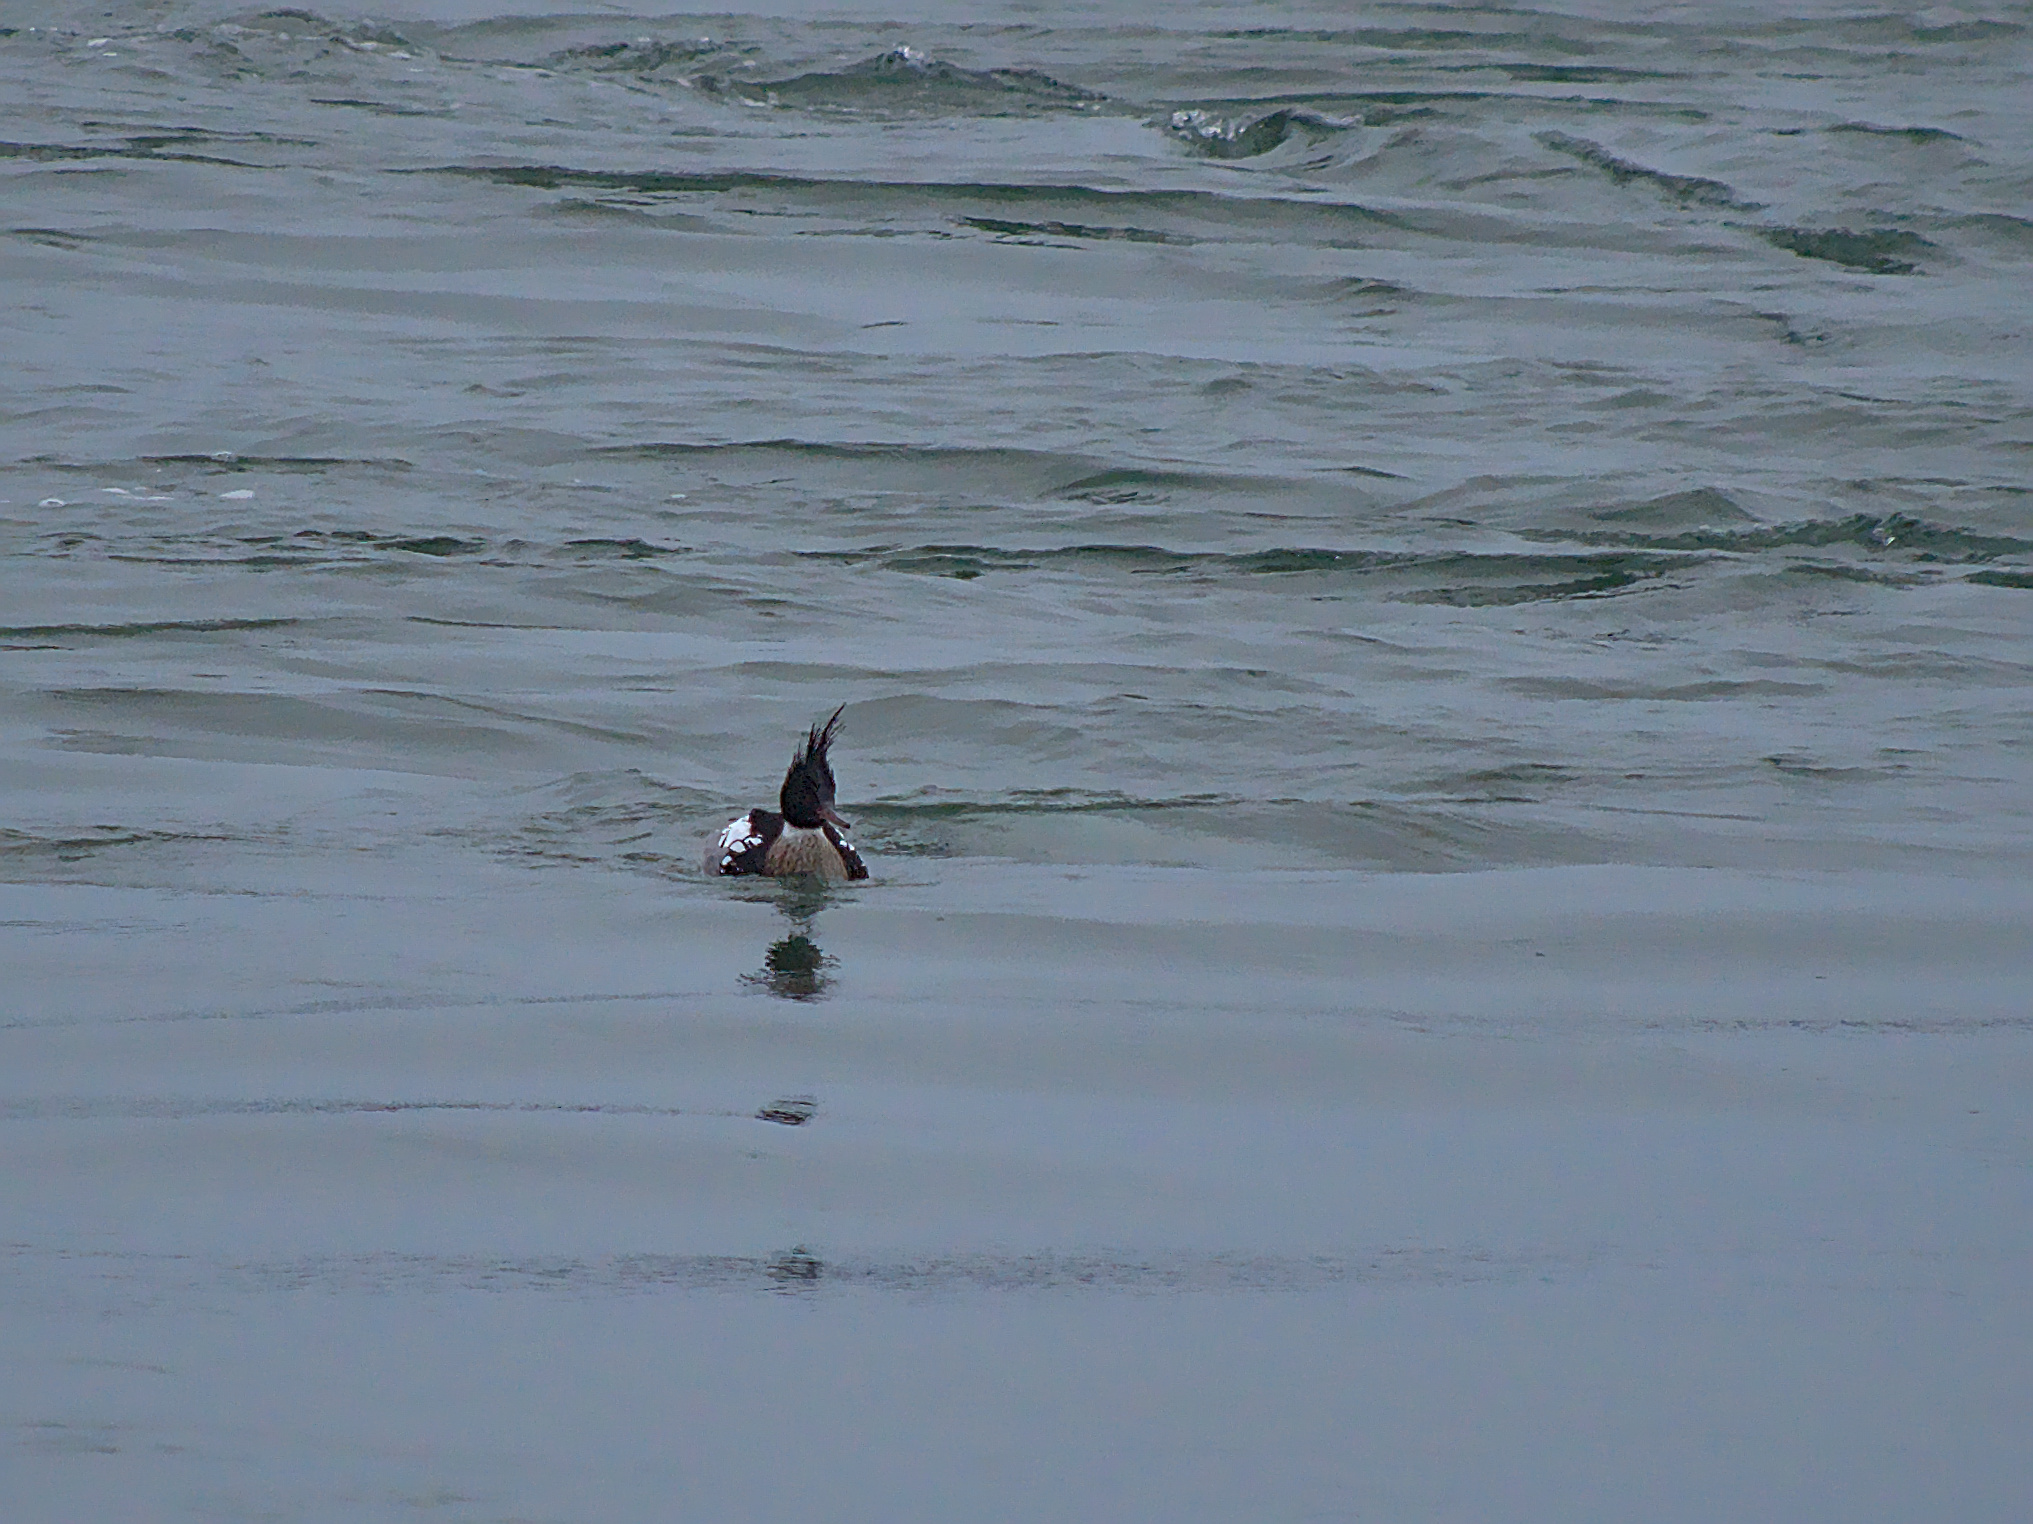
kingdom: Animalia
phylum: Chordata
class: Aves
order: Anseriformes
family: Anatidae
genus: Mergus
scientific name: Mergus serrator
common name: Red-breasted merganser
